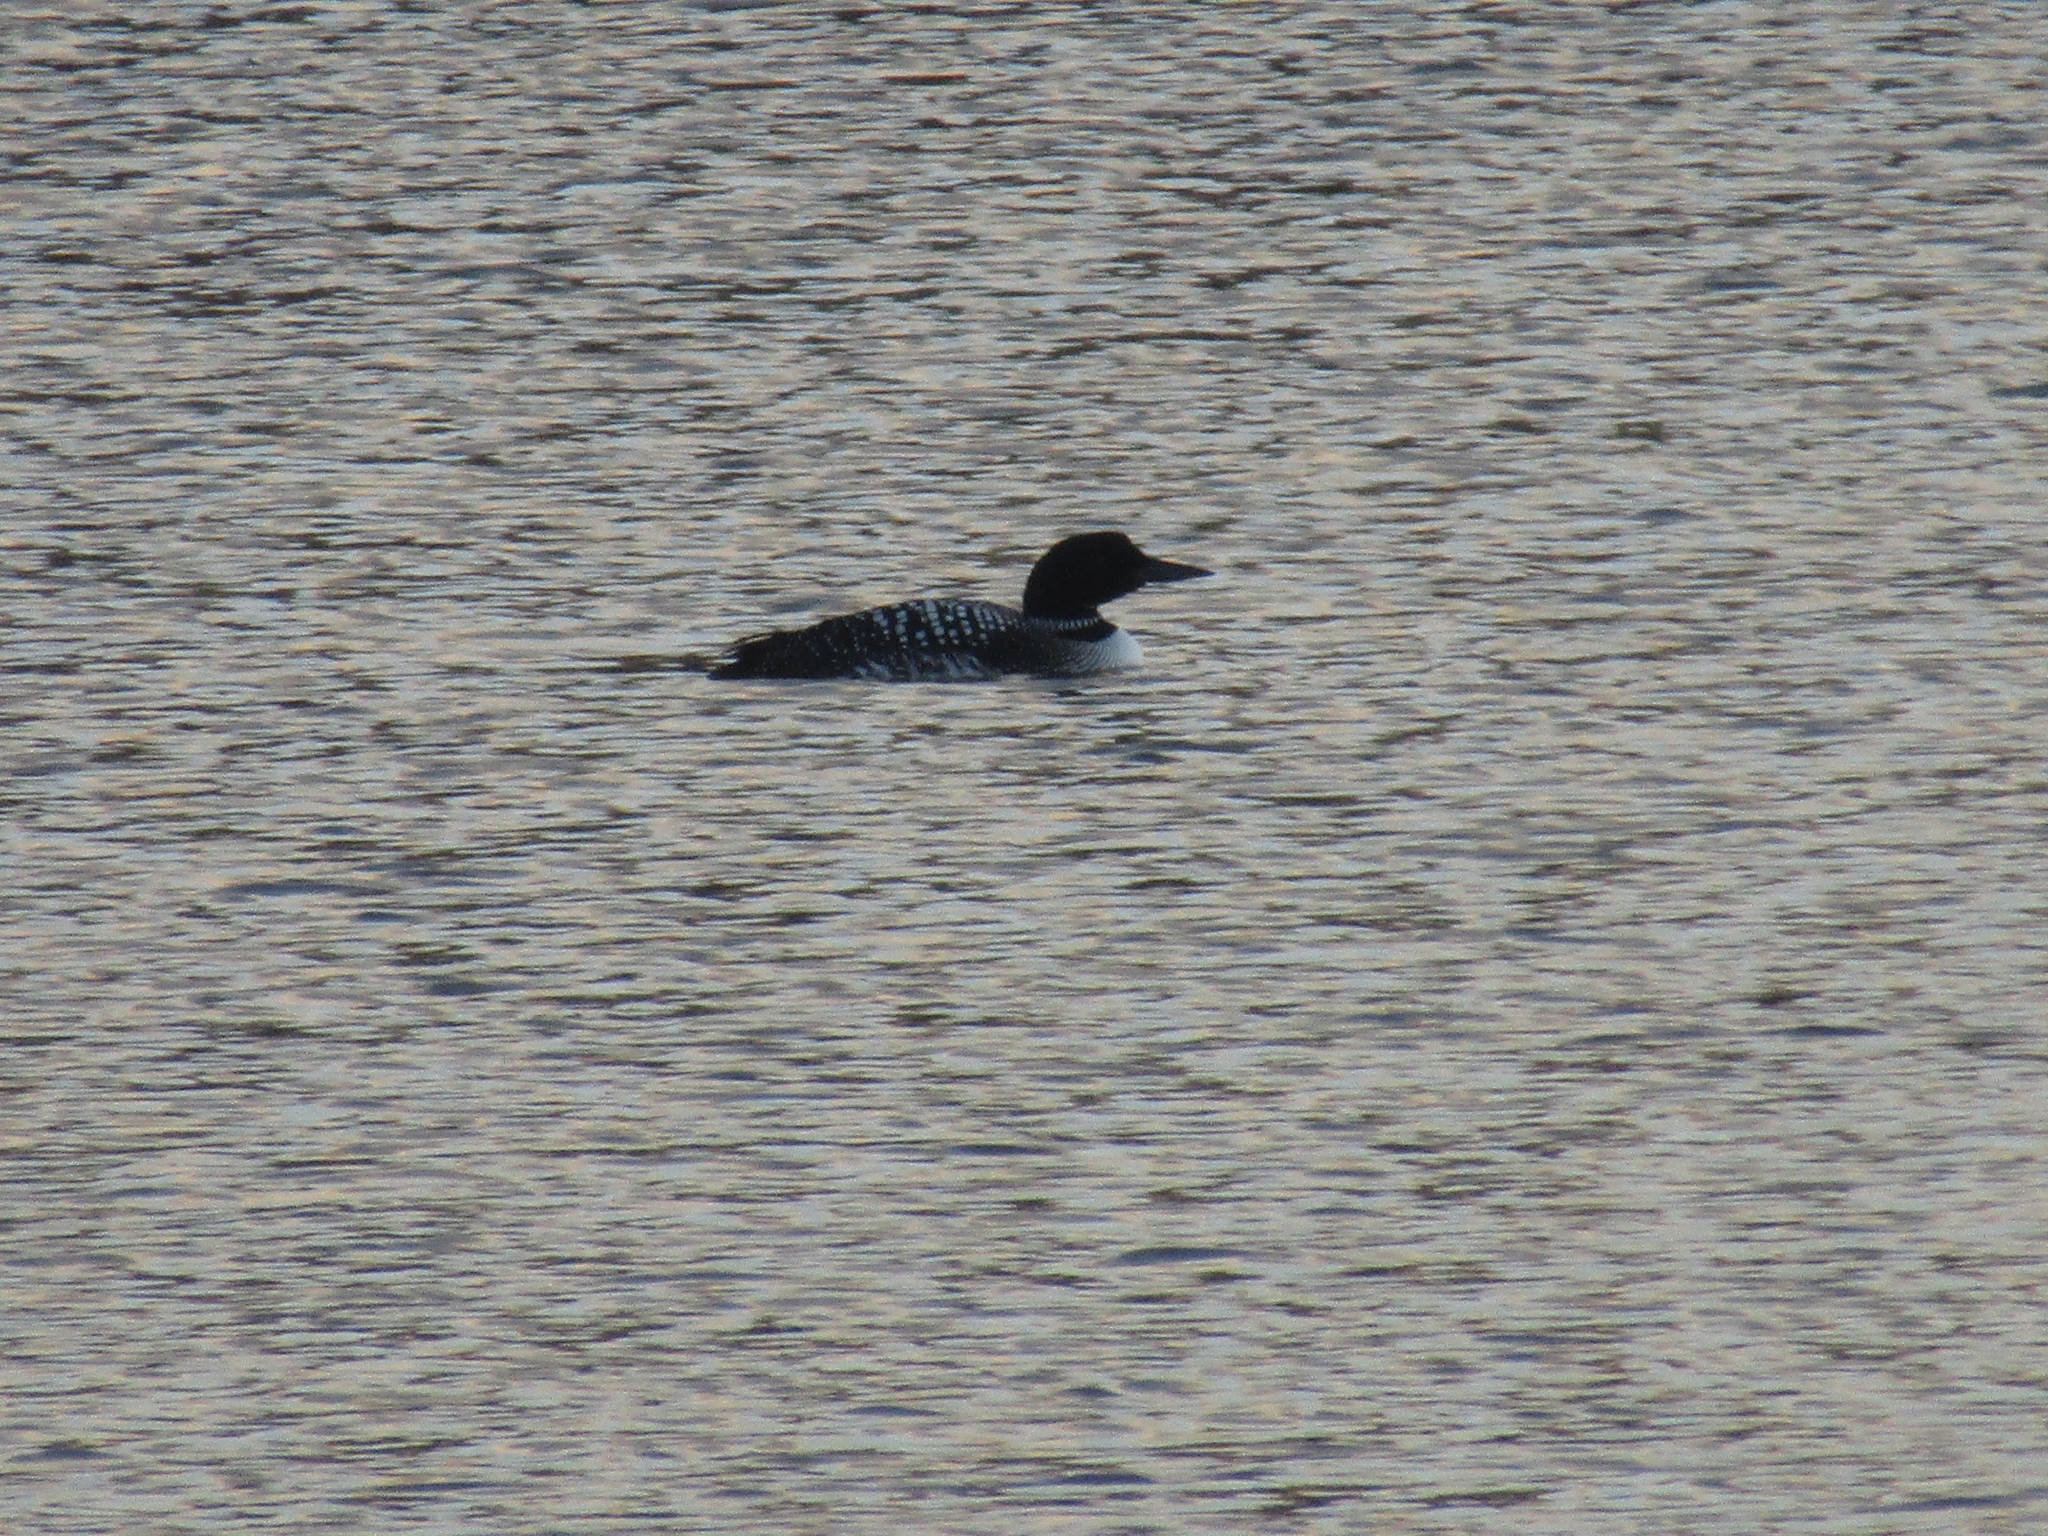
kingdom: Animalia
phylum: Chordata
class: Aves
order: Gaviiformes
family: Gaviidae
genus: Gavia
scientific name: Gavia immer
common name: Common loon
